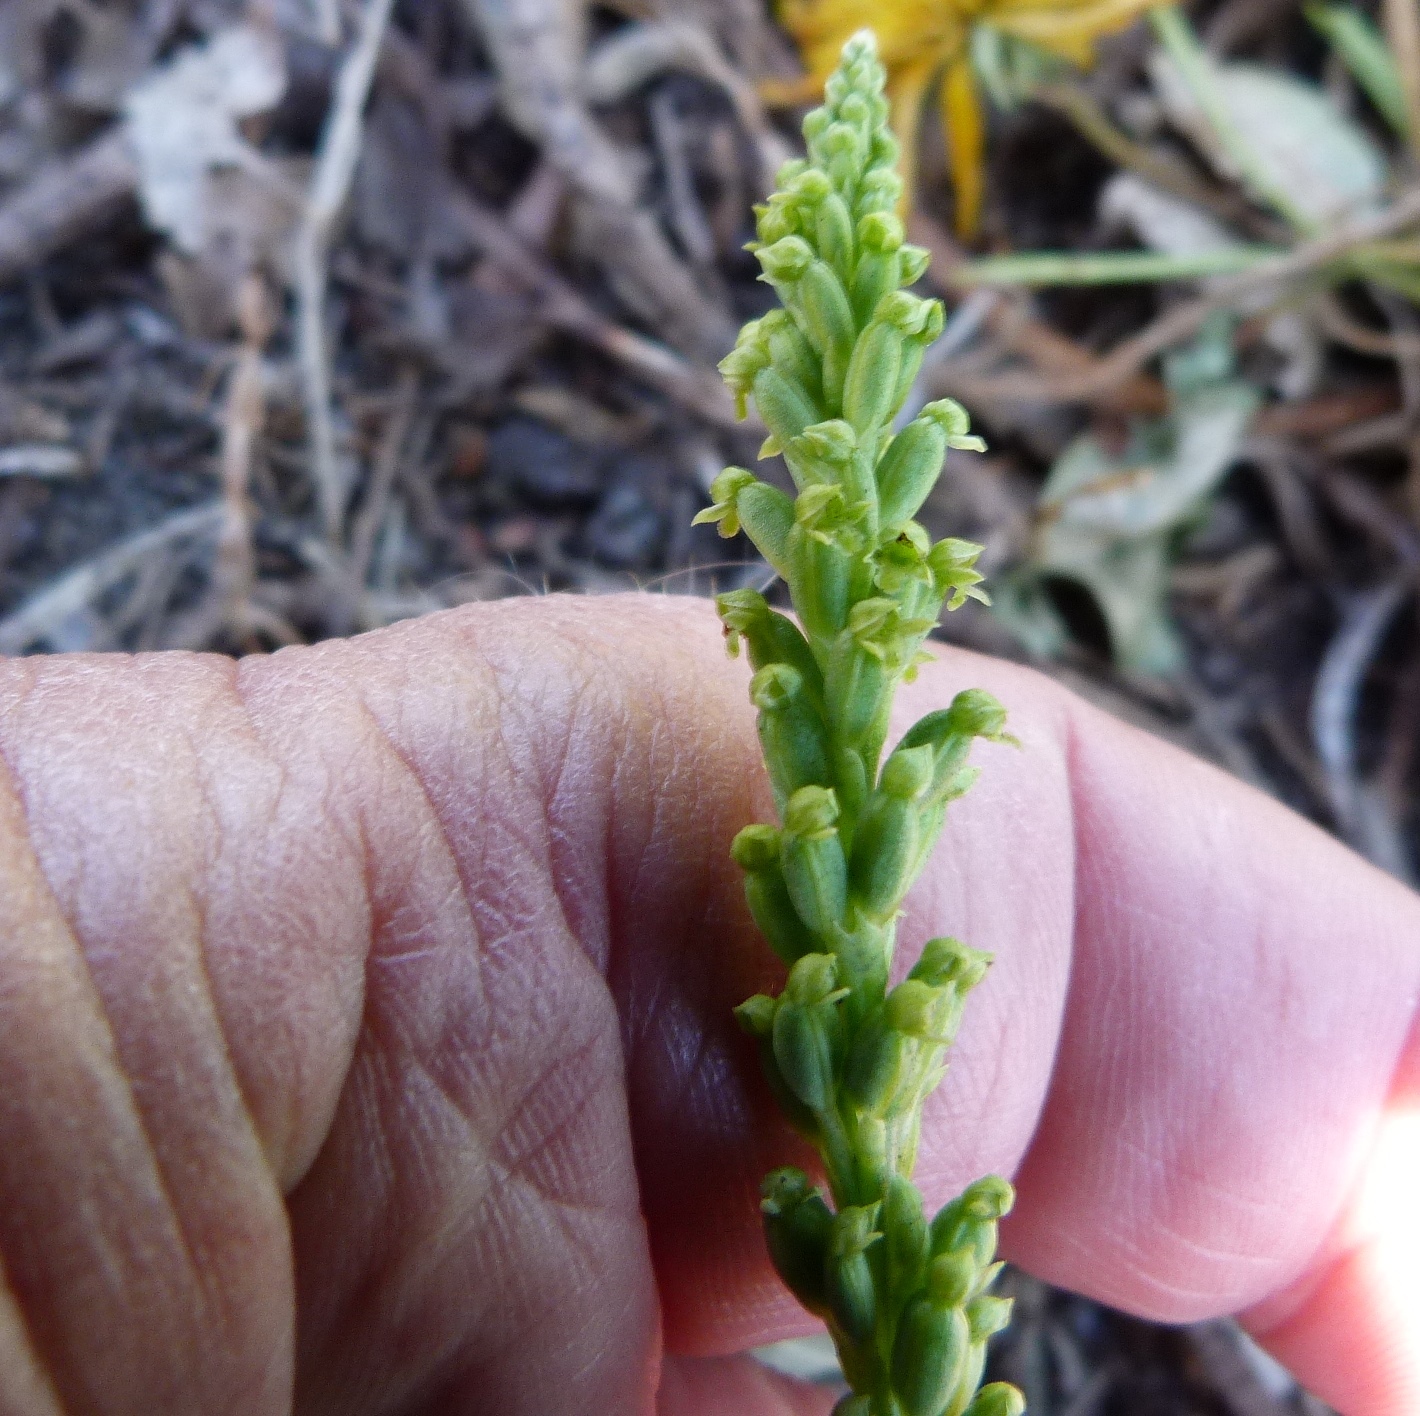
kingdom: Plantae
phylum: Tracheophyta
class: Liliopsida
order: Asparagales
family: Orchidaceae
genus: Microtis
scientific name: Microtis unifolia
